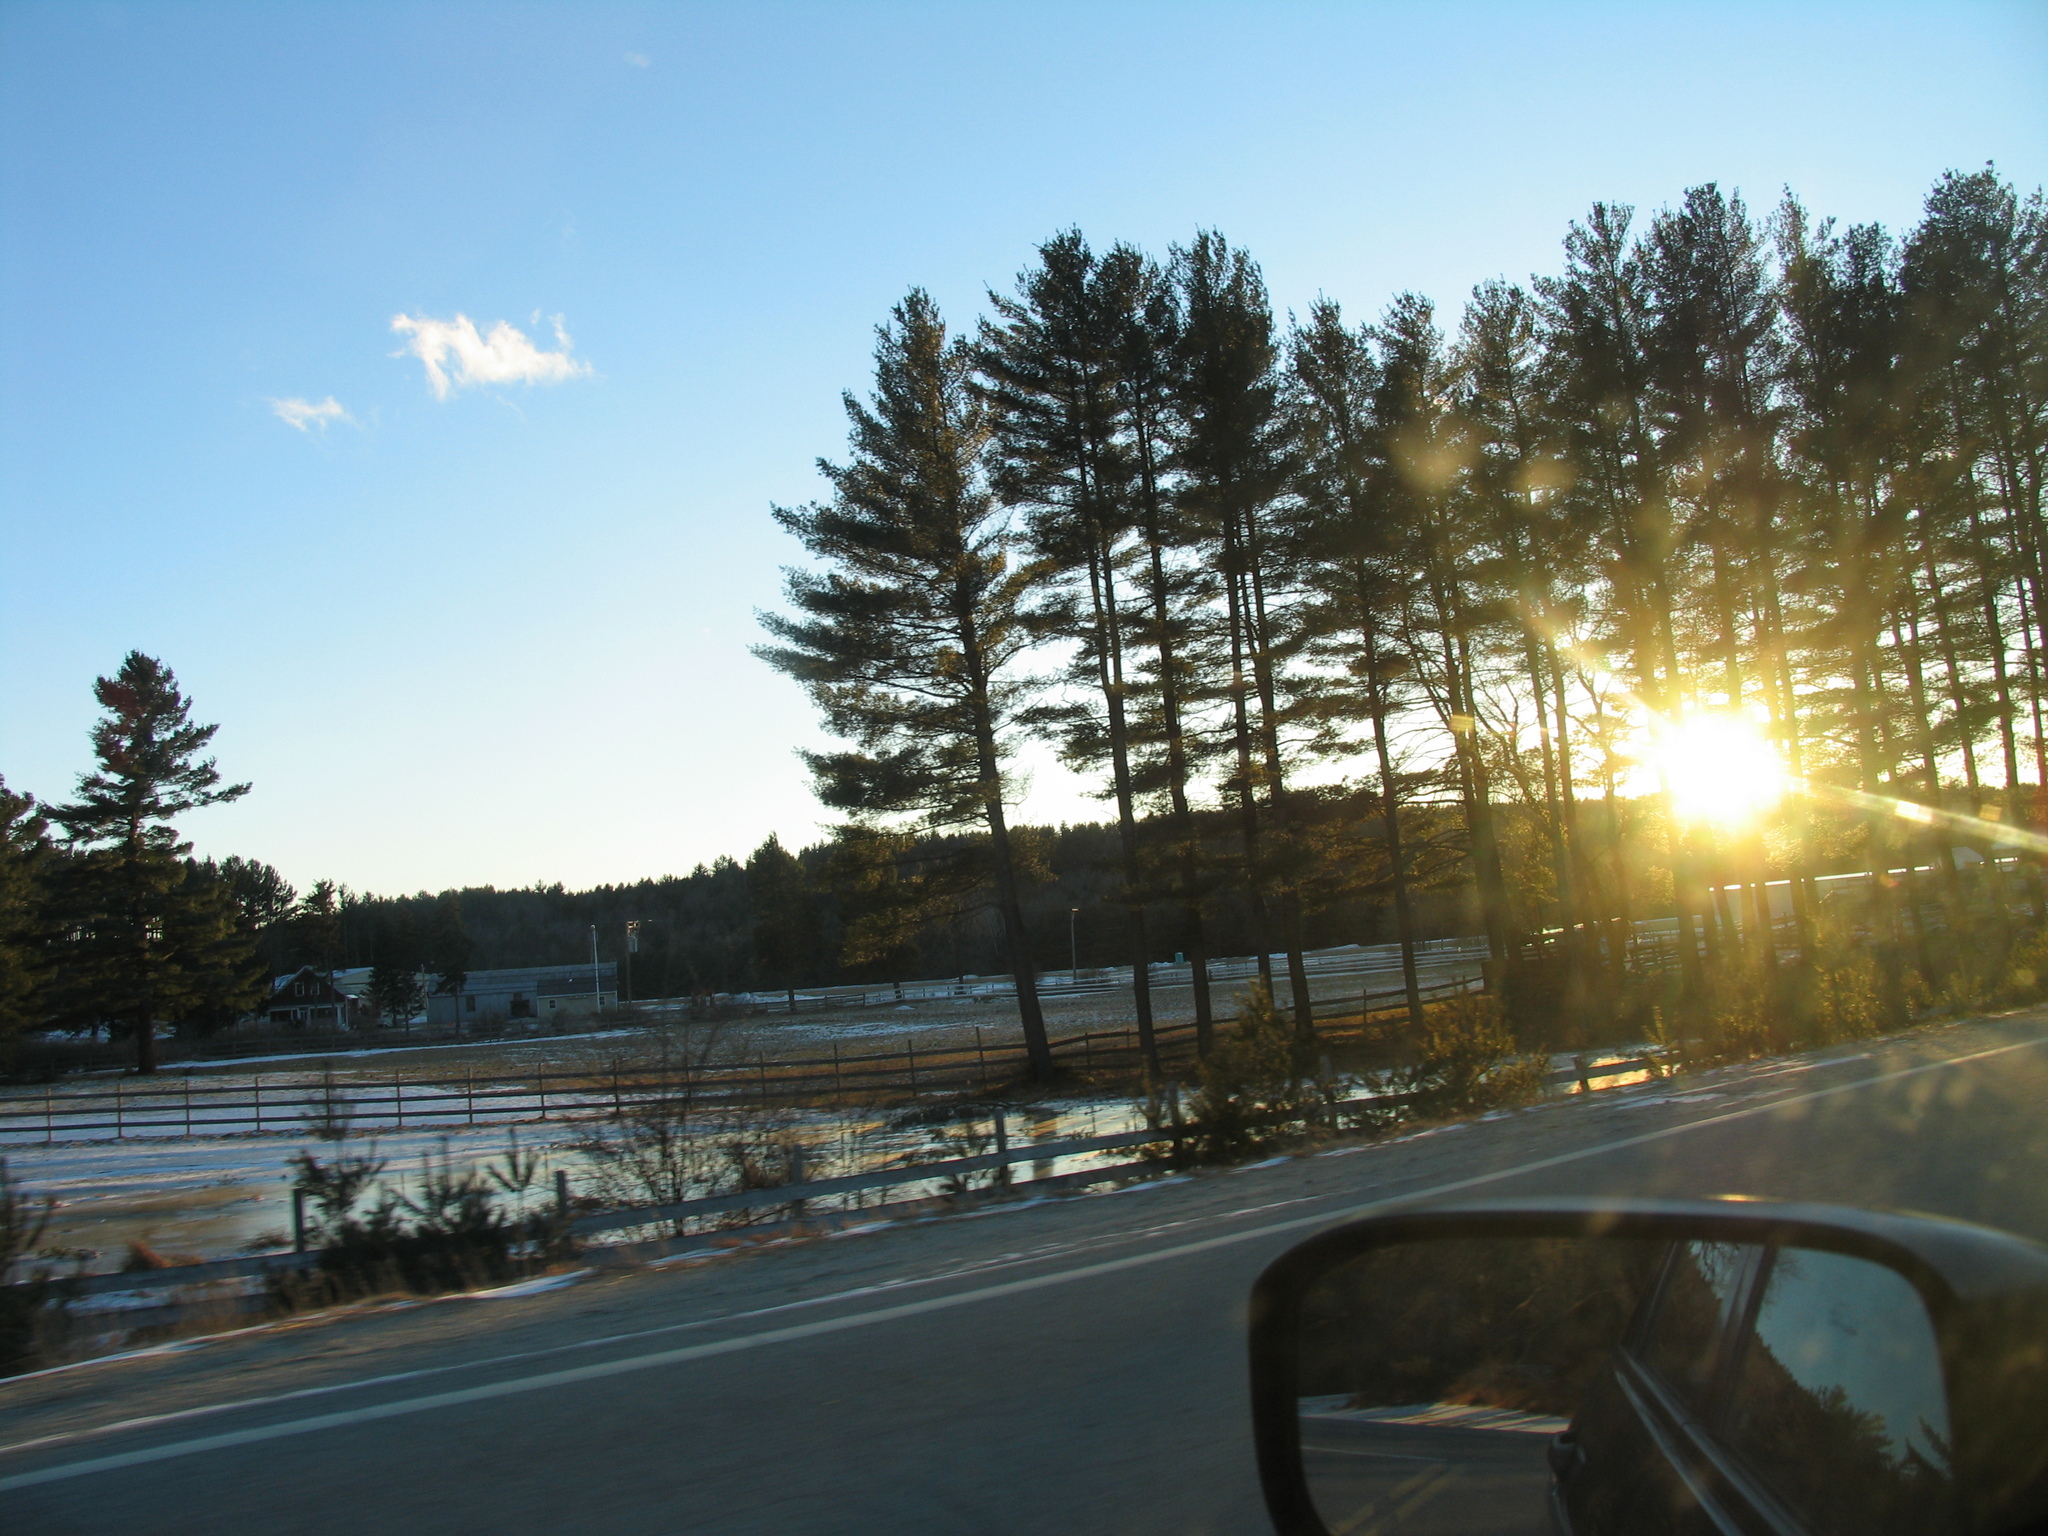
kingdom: Plantae
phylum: Tracheophyta
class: Pinopsida
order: Pinales
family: Pinaceae
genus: Pinus
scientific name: Pinus strobus
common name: Weymouth pine
